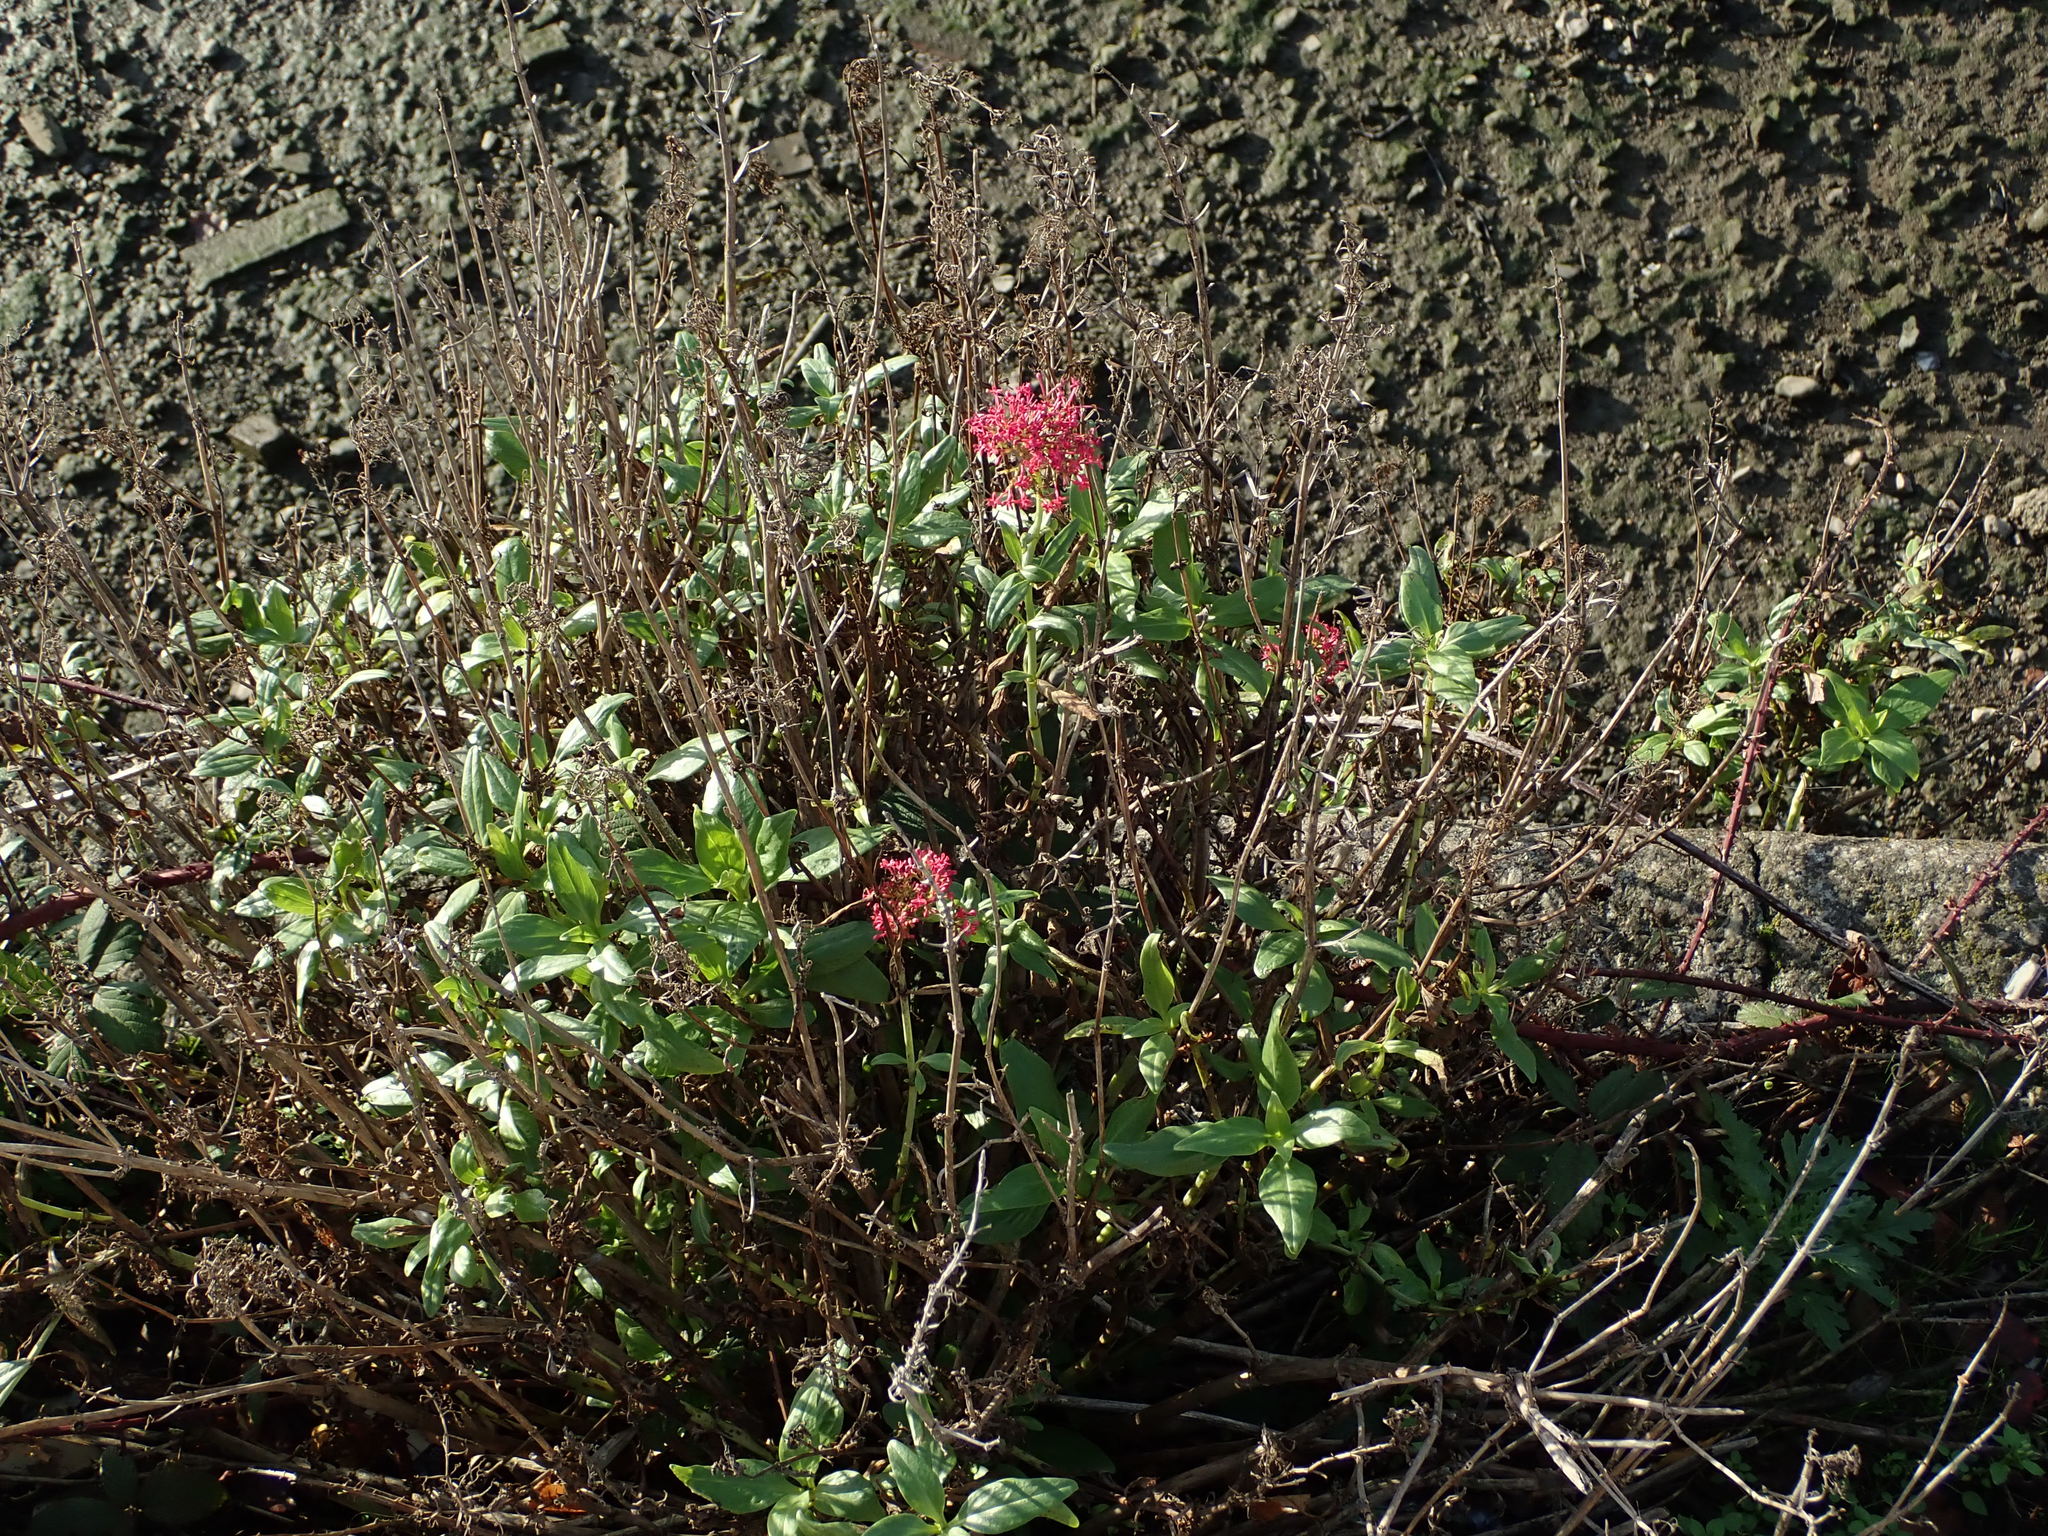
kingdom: Plantae
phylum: Tracheophyta
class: Magnoliopsida
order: Dipsacales
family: Caprifoliaceae
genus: Centranthus
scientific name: Centranthus ruber
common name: Red valerian
